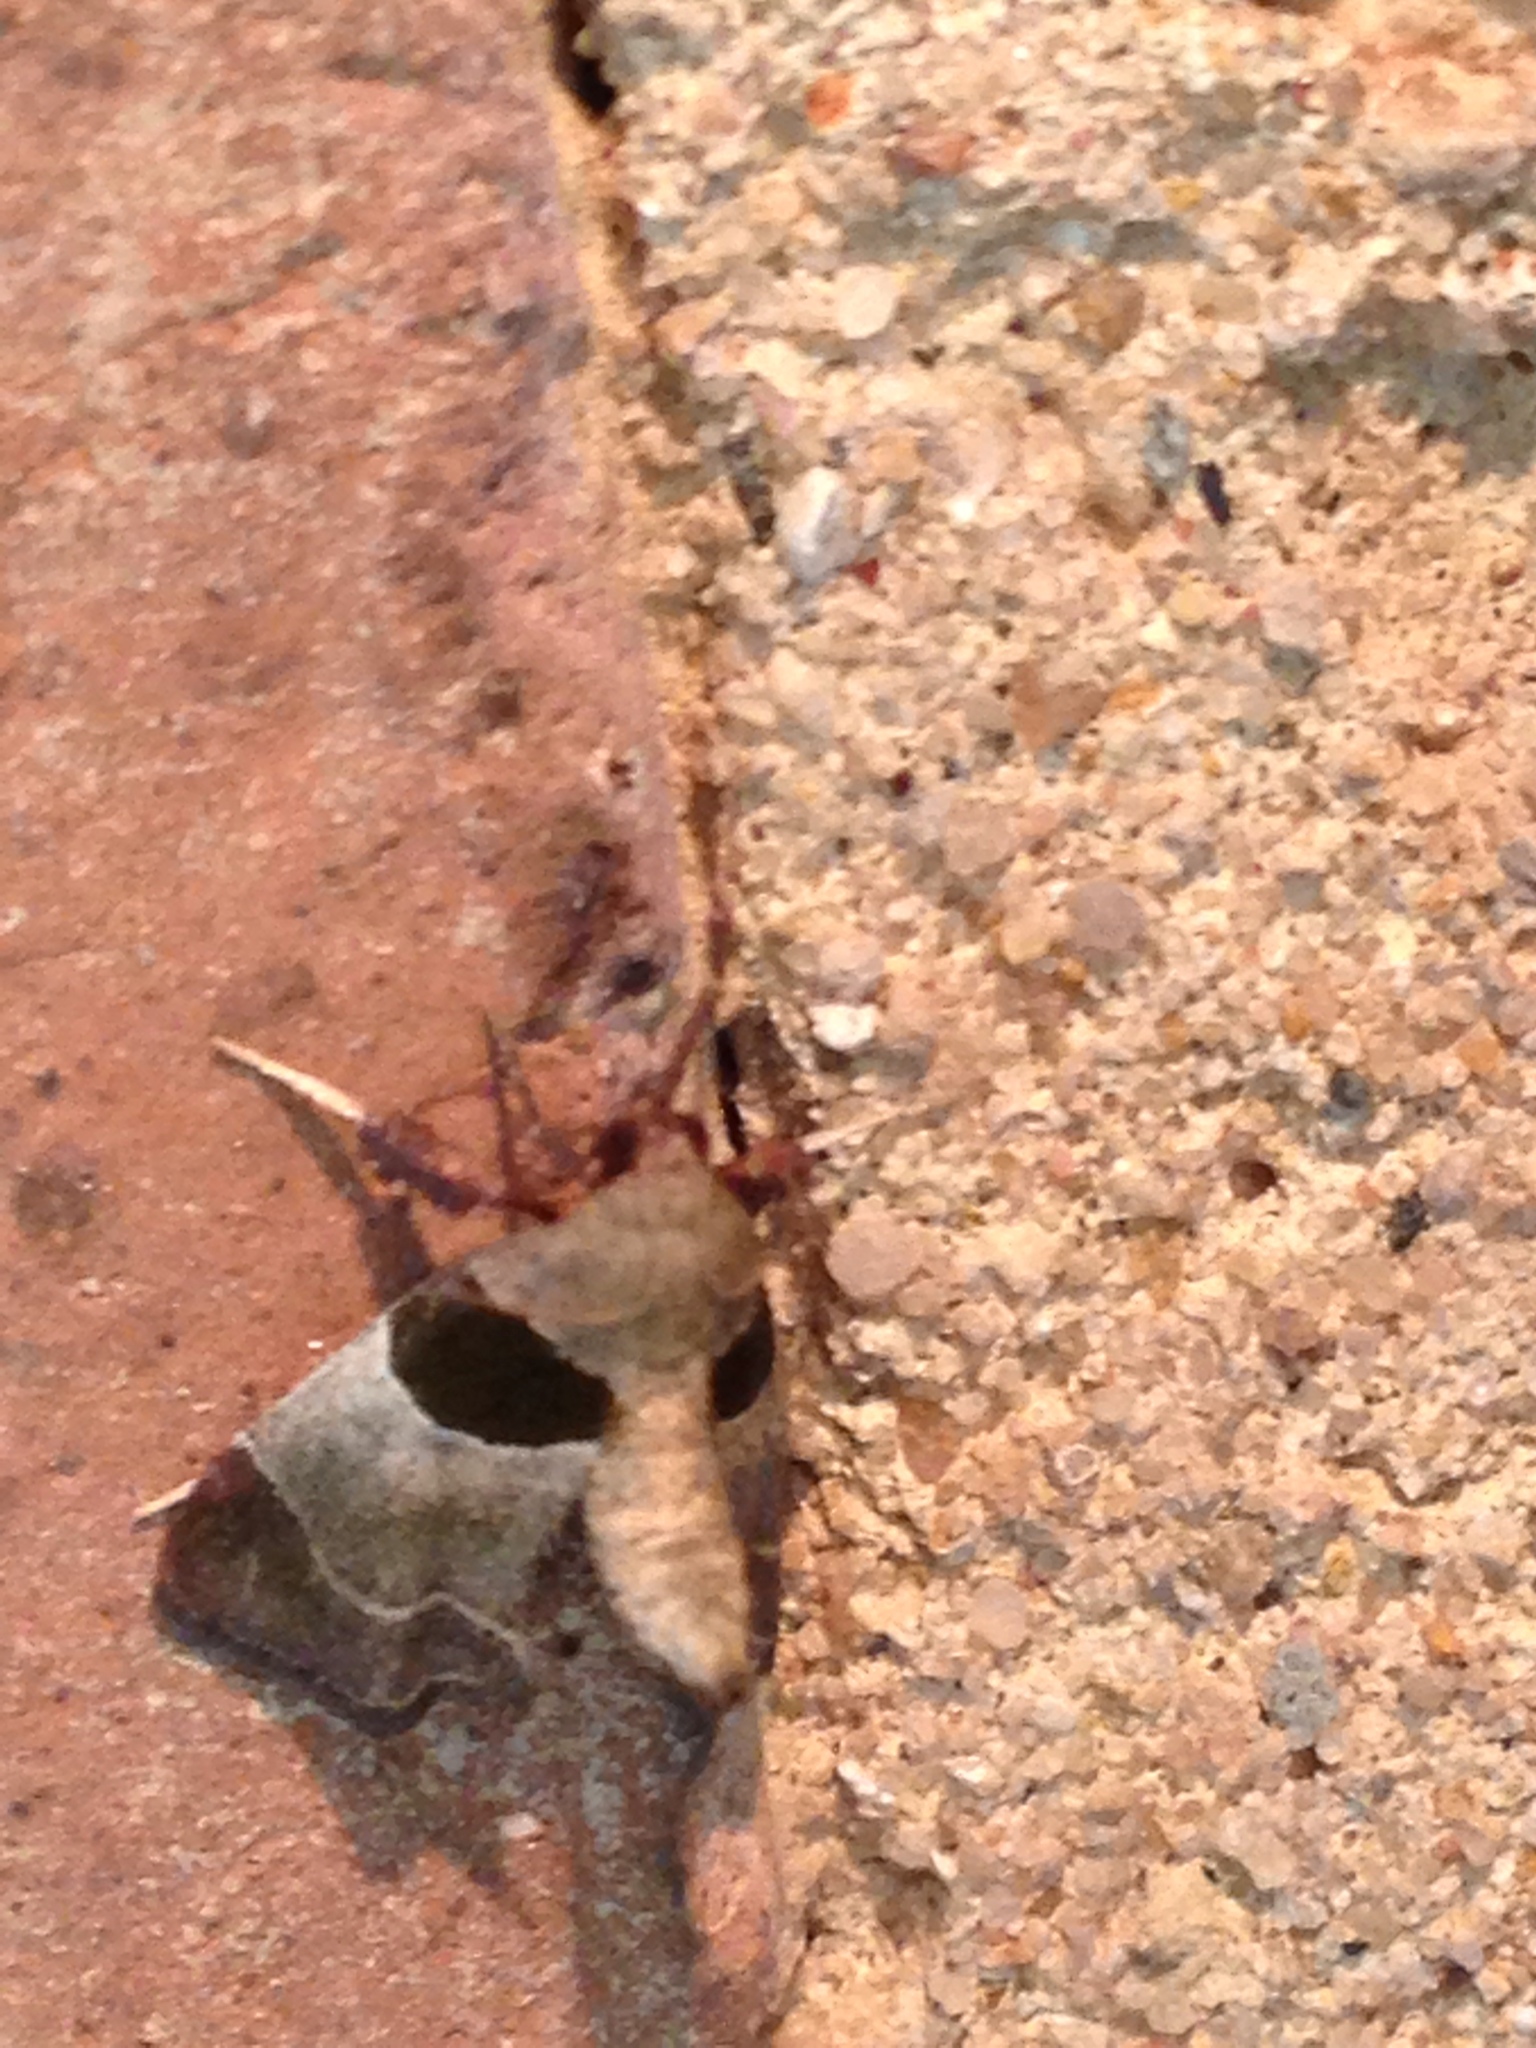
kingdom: Animalia
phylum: Arthropoda
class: Insecta
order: Lepidoptera
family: Pyralidae
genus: Tosale
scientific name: Tosale oviplagalis
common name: Dimorphic tosale moth
